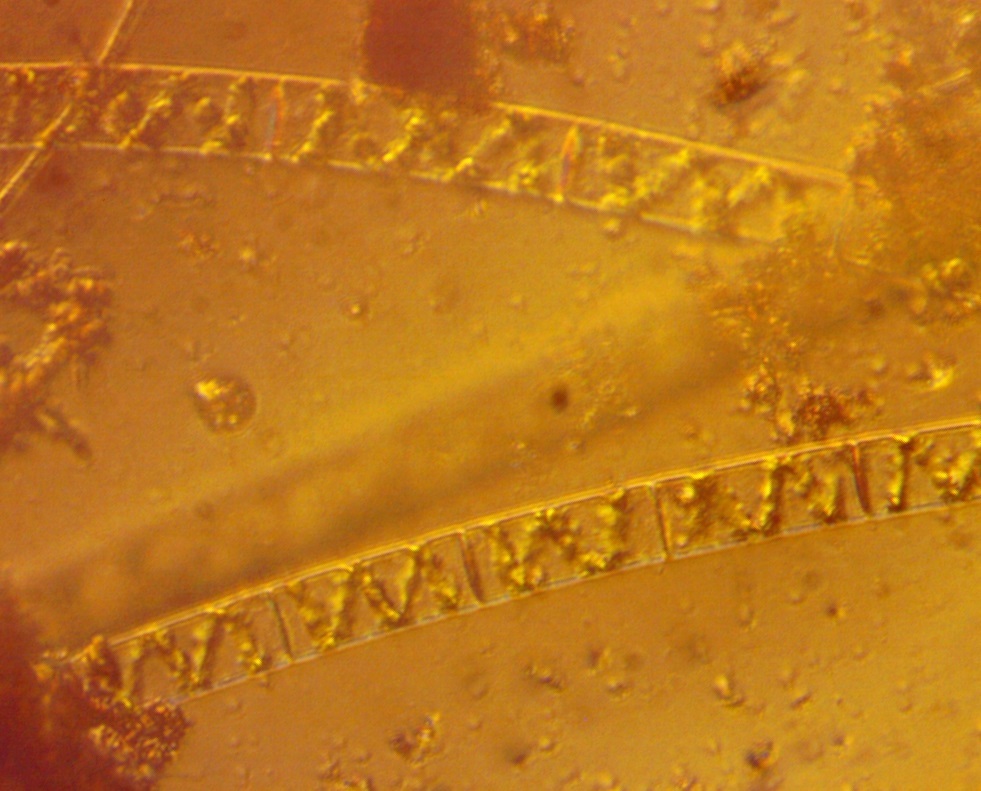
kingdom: Plantae
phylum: Charophyta
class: Zygnematophyceae
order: Zygnematales
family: Zygnemataceae
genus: Spirogyra
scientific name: Spirogyra
